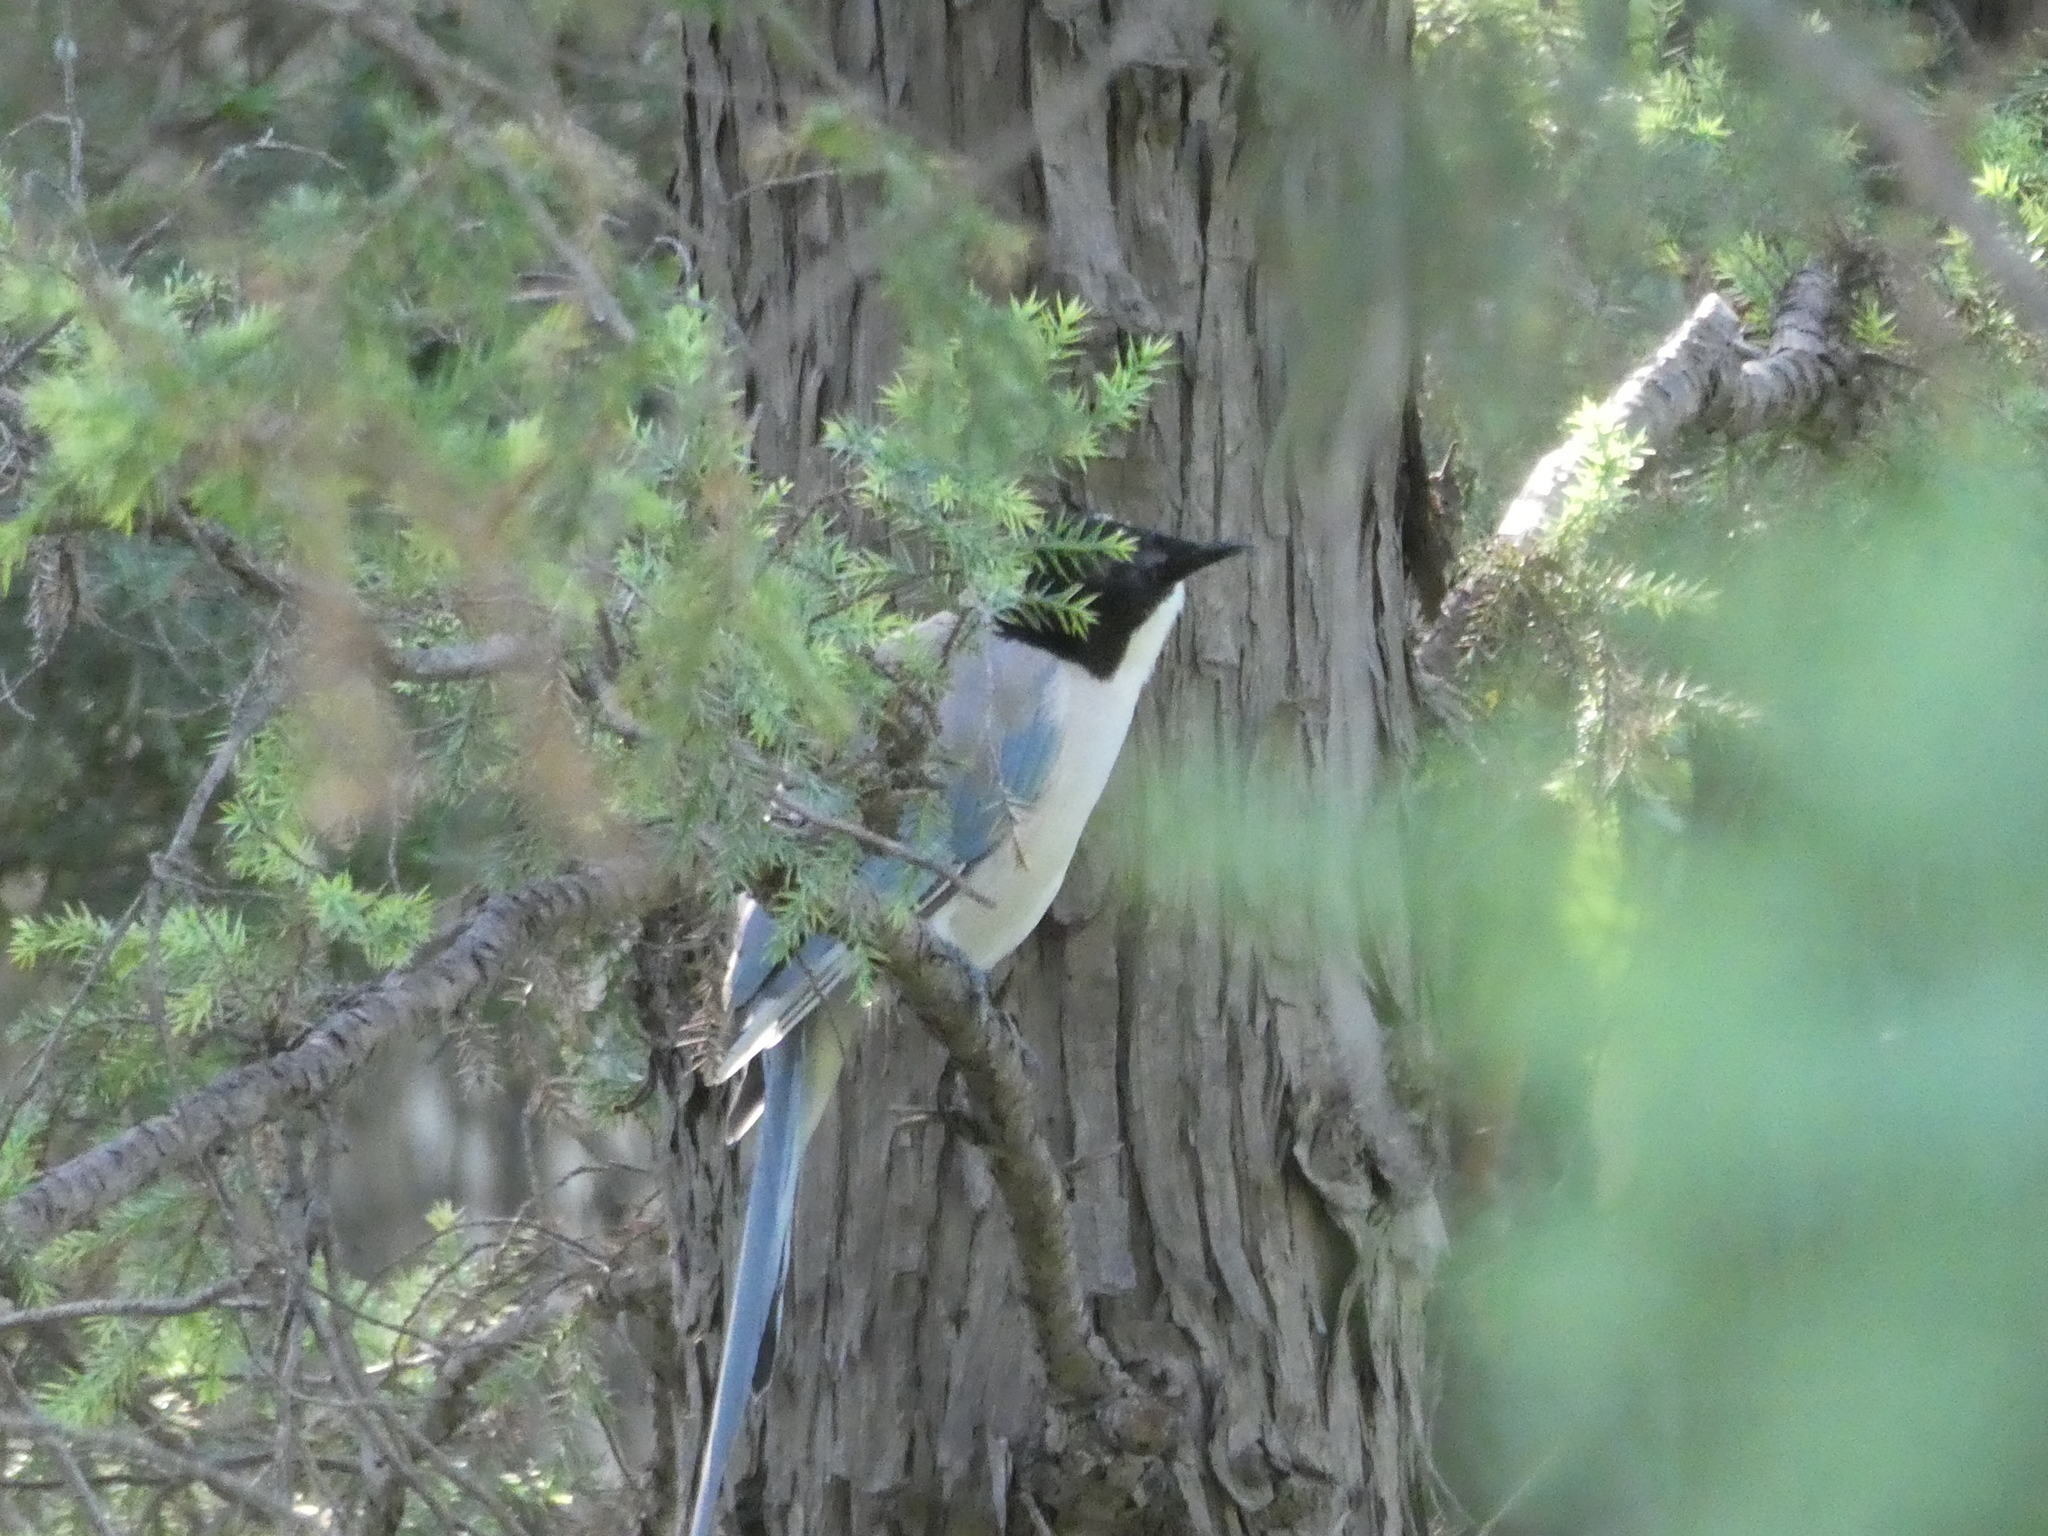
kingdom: Animalia
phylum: Chordata
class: Aves
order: Passeriformes
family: Corvidae
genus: Cyanopica
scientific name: Cyanopica cyanus
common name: Azure-winged magpie
